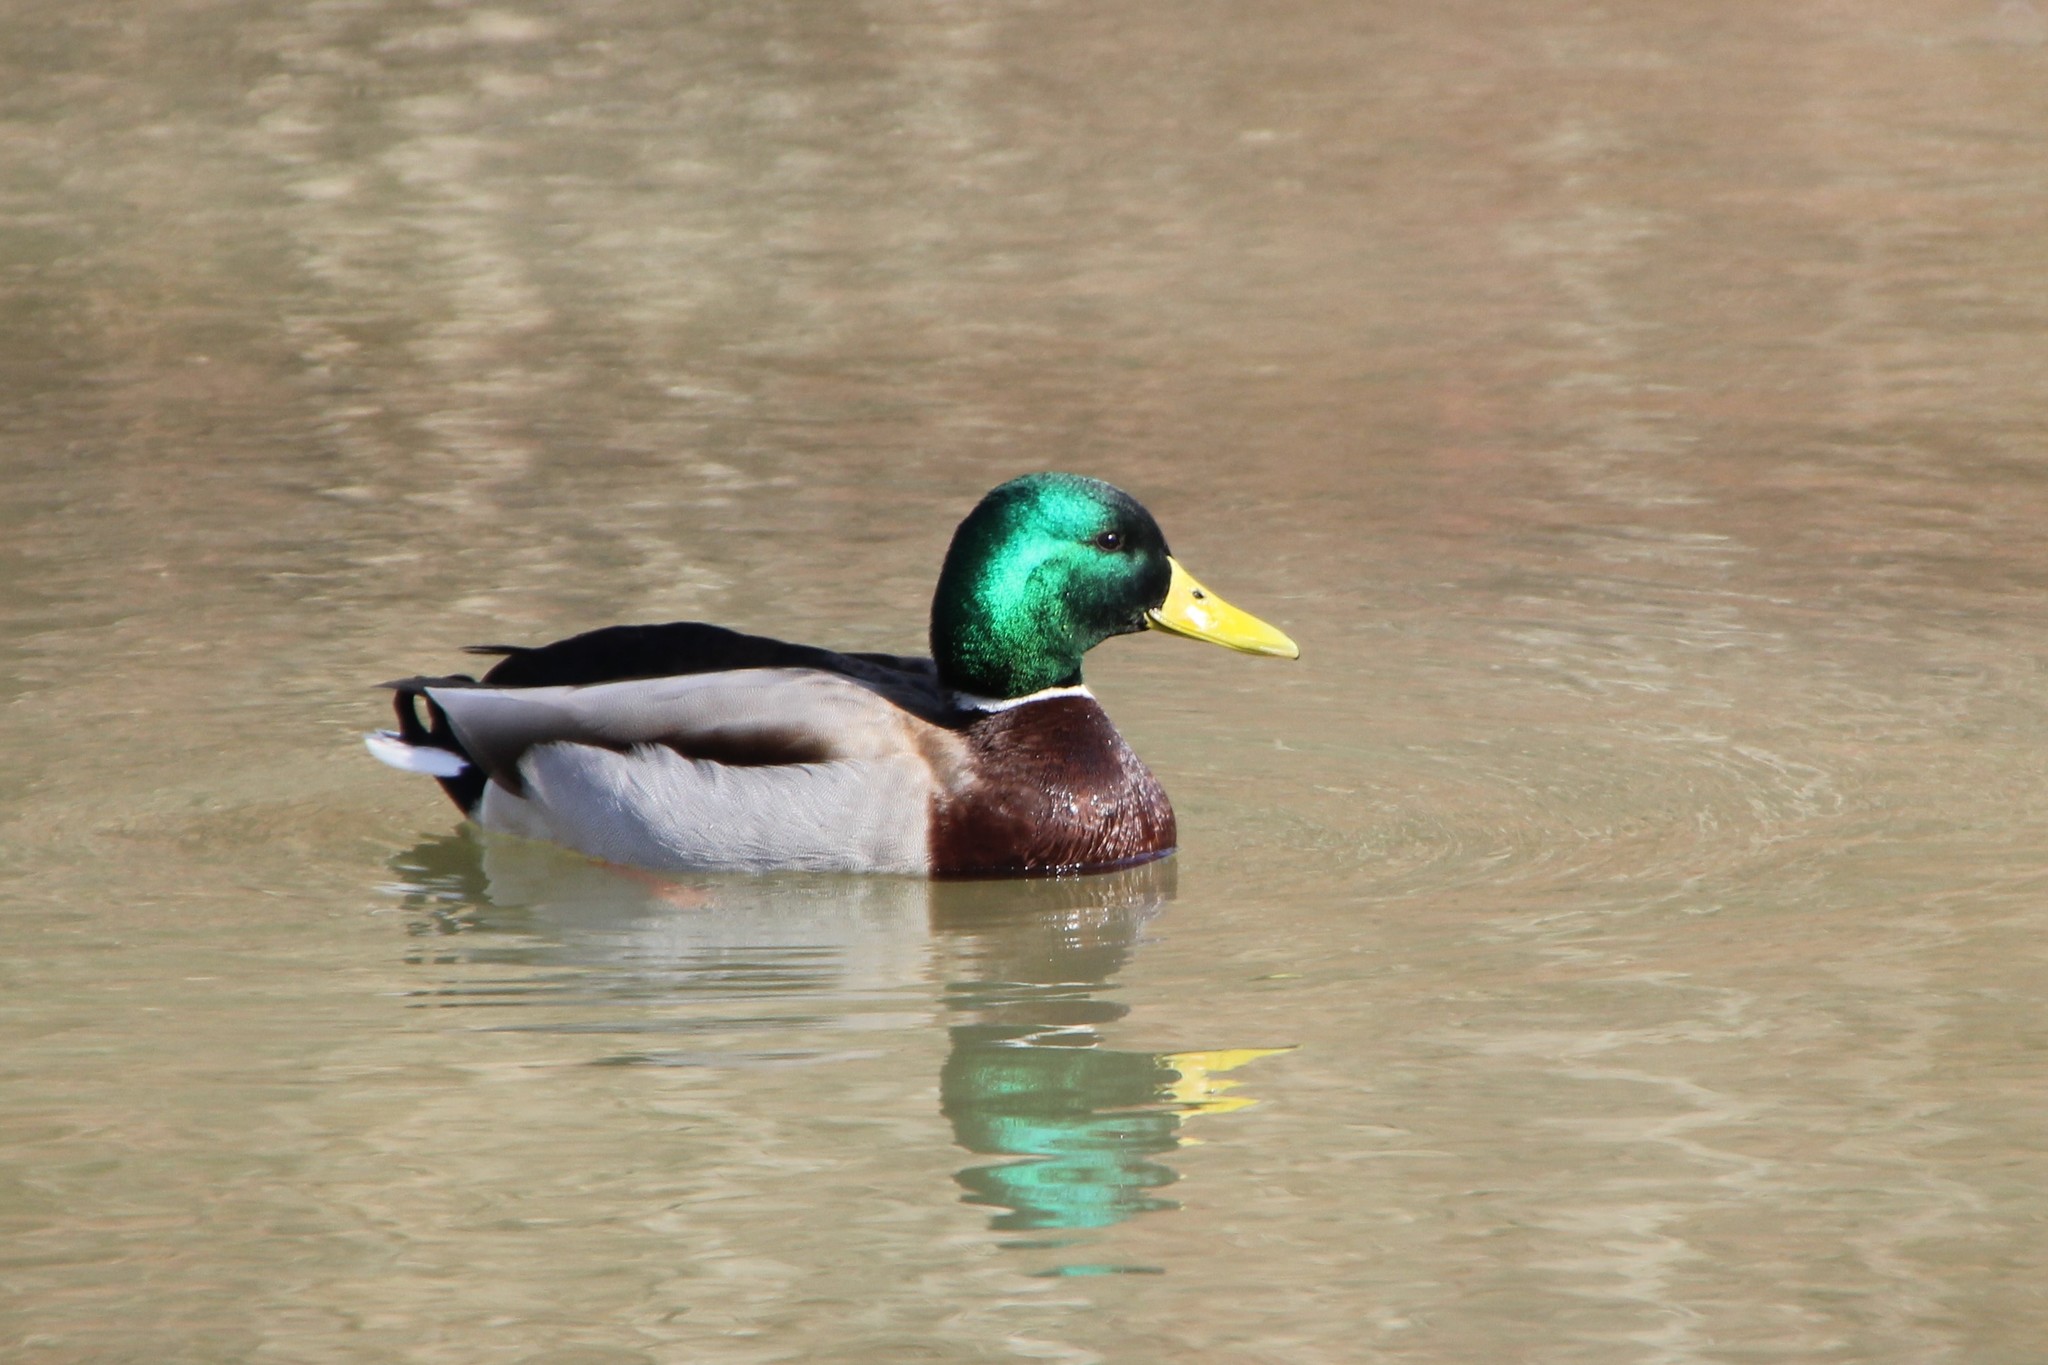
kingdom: Animalia
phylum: Chordata
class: Aves
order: Anseriformes
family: Anatidae
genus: Anas
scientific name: Anas platyrhynchos
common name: Mallard
